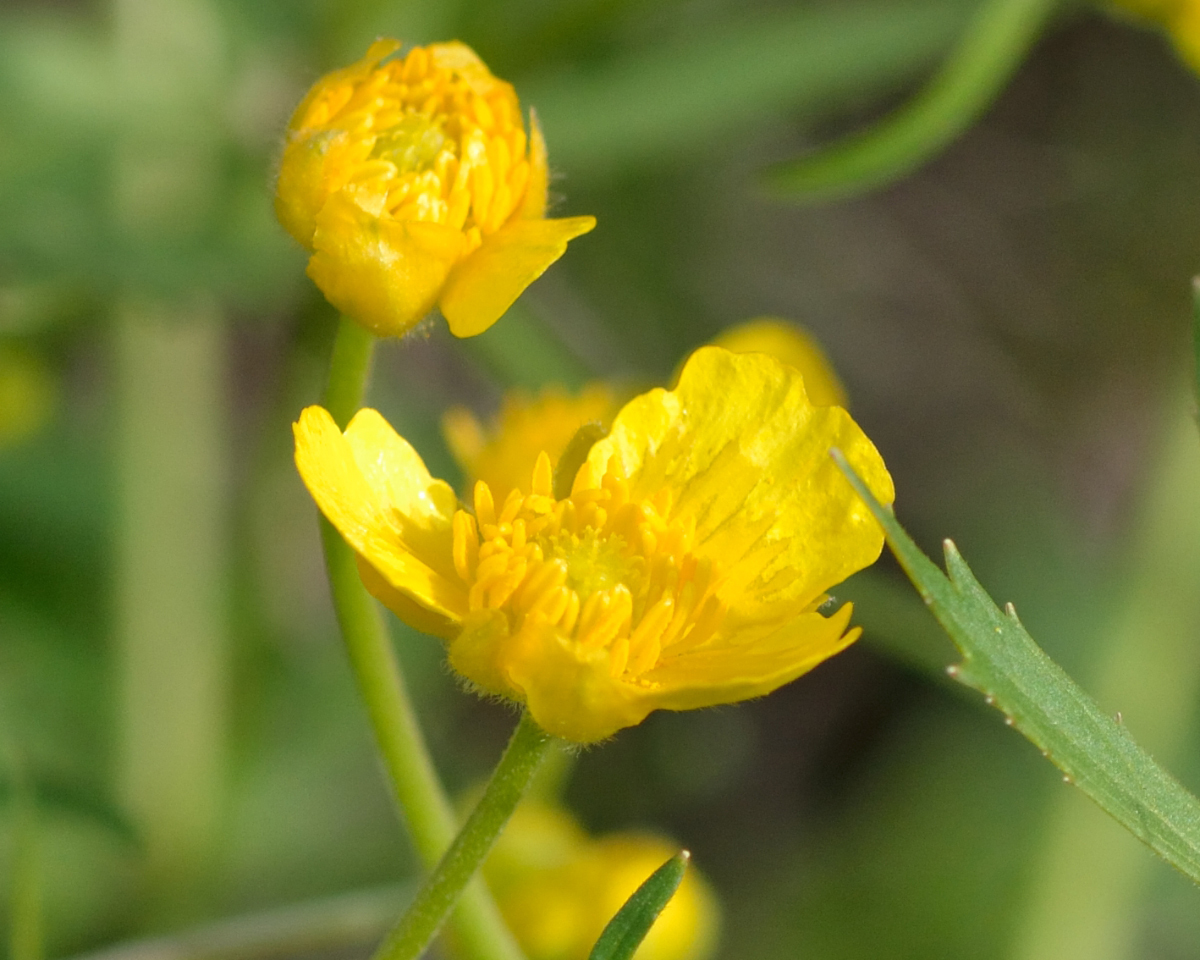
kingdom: Plantae
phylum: Tracheophyta
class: Magnoliopsida
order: Ranunculales
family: Ranunculaceae
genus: Ranunculus
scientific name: Ranunculus cassubicus
